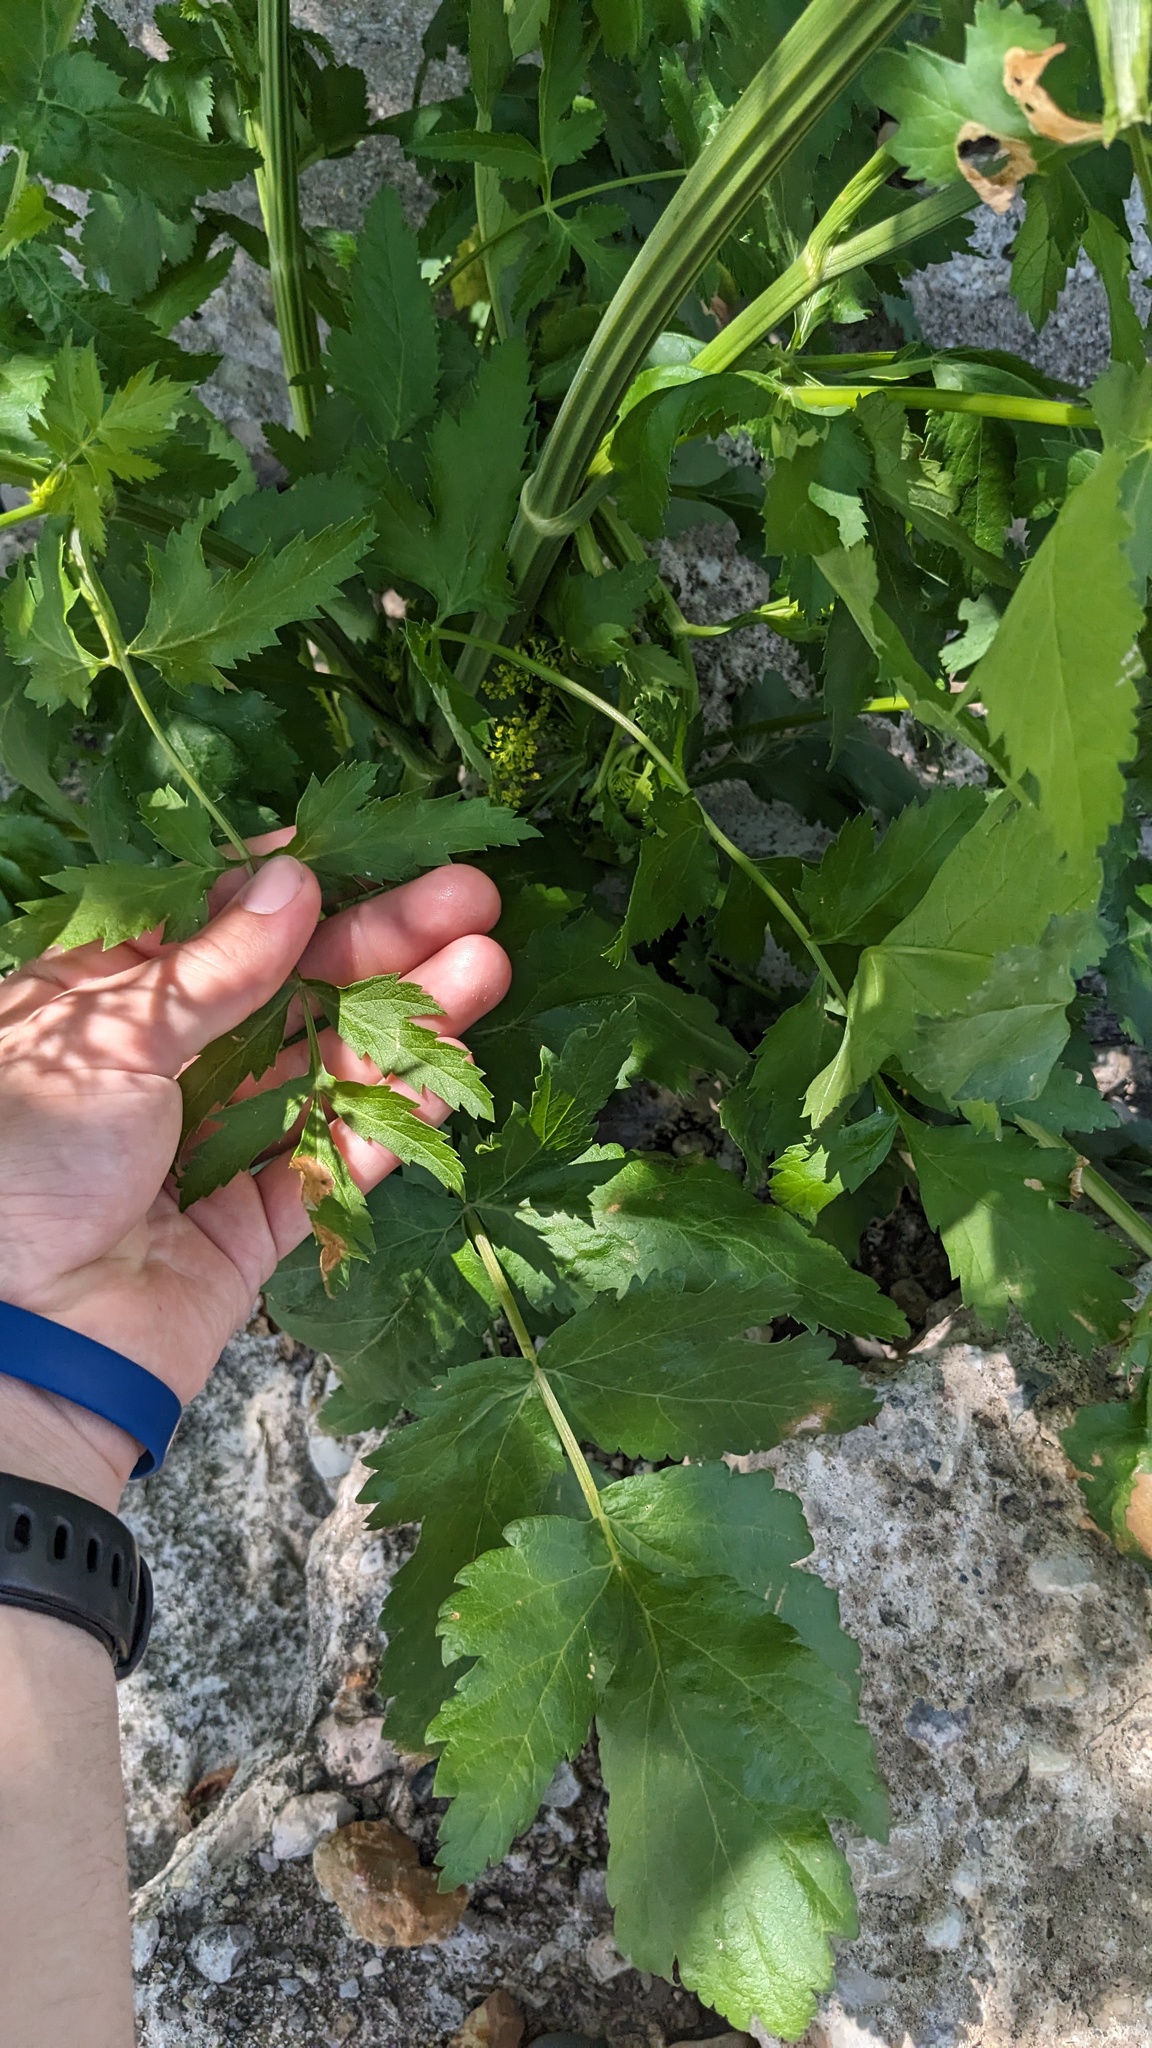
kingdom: Plantae
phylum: Tracheophyta
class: Magnoliopsida
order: Apiales
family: Apiaceae
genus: Pastinaca
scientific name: Pastinaca sativa
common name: Wild parsnip
